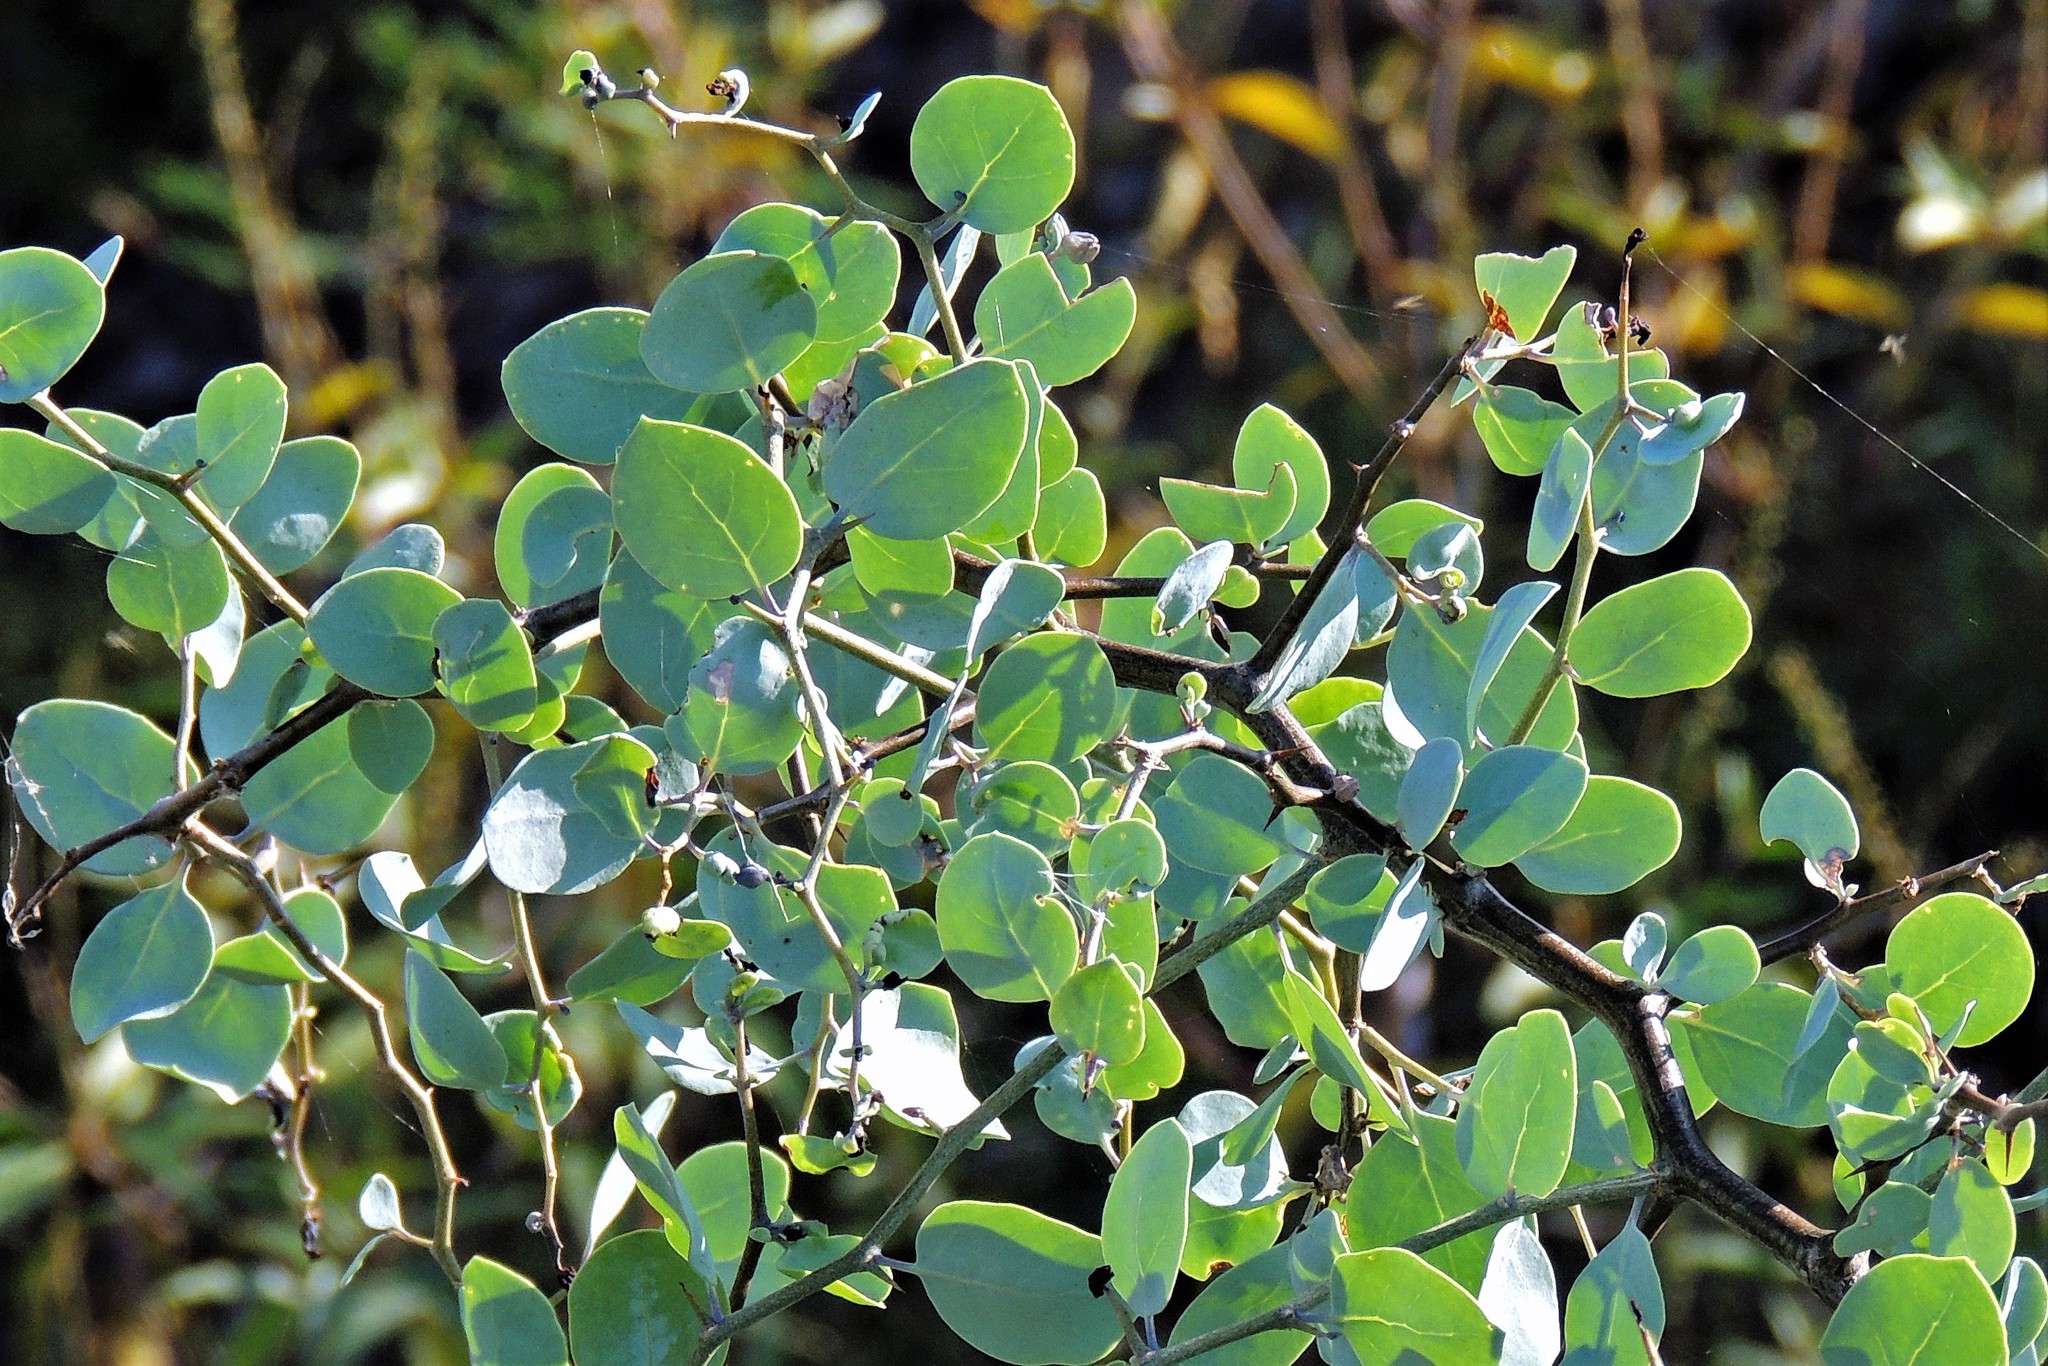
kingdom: Plantae
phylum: Tracheophyta
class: Magnoliopsida
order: Solanales
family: Solanaceae
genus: Lycium
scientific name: Lycium boerhaaviifolium
